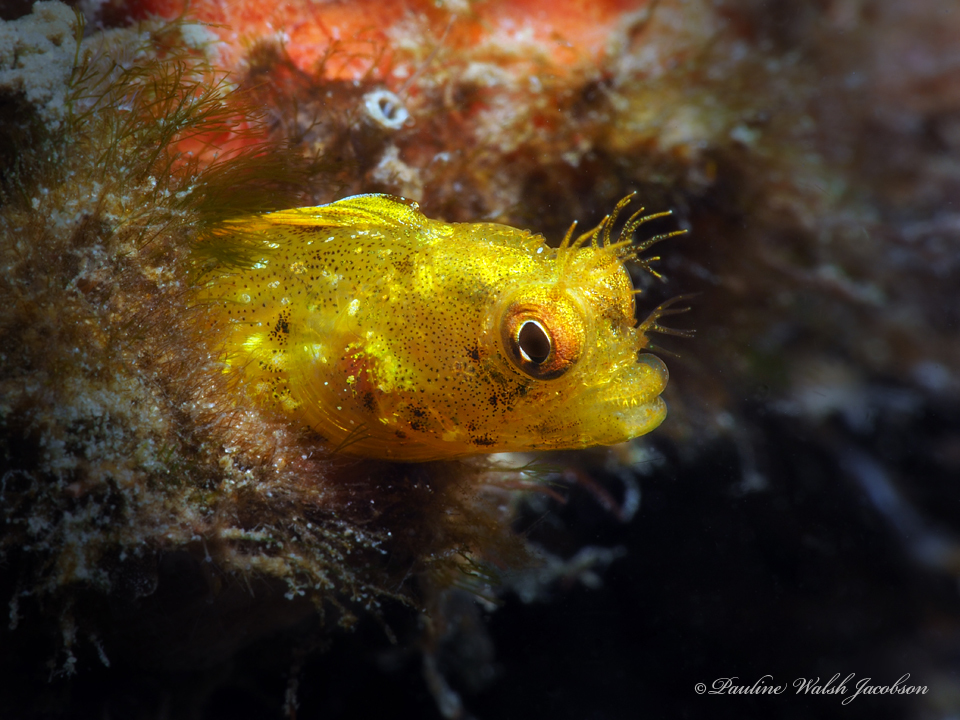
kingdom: Animalia
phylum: Chordata
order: Perciformes
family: Chaenopsidae
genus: Acanthemblemaria
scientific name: Acanthemblemaria aspera
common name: Roughhead blenny
